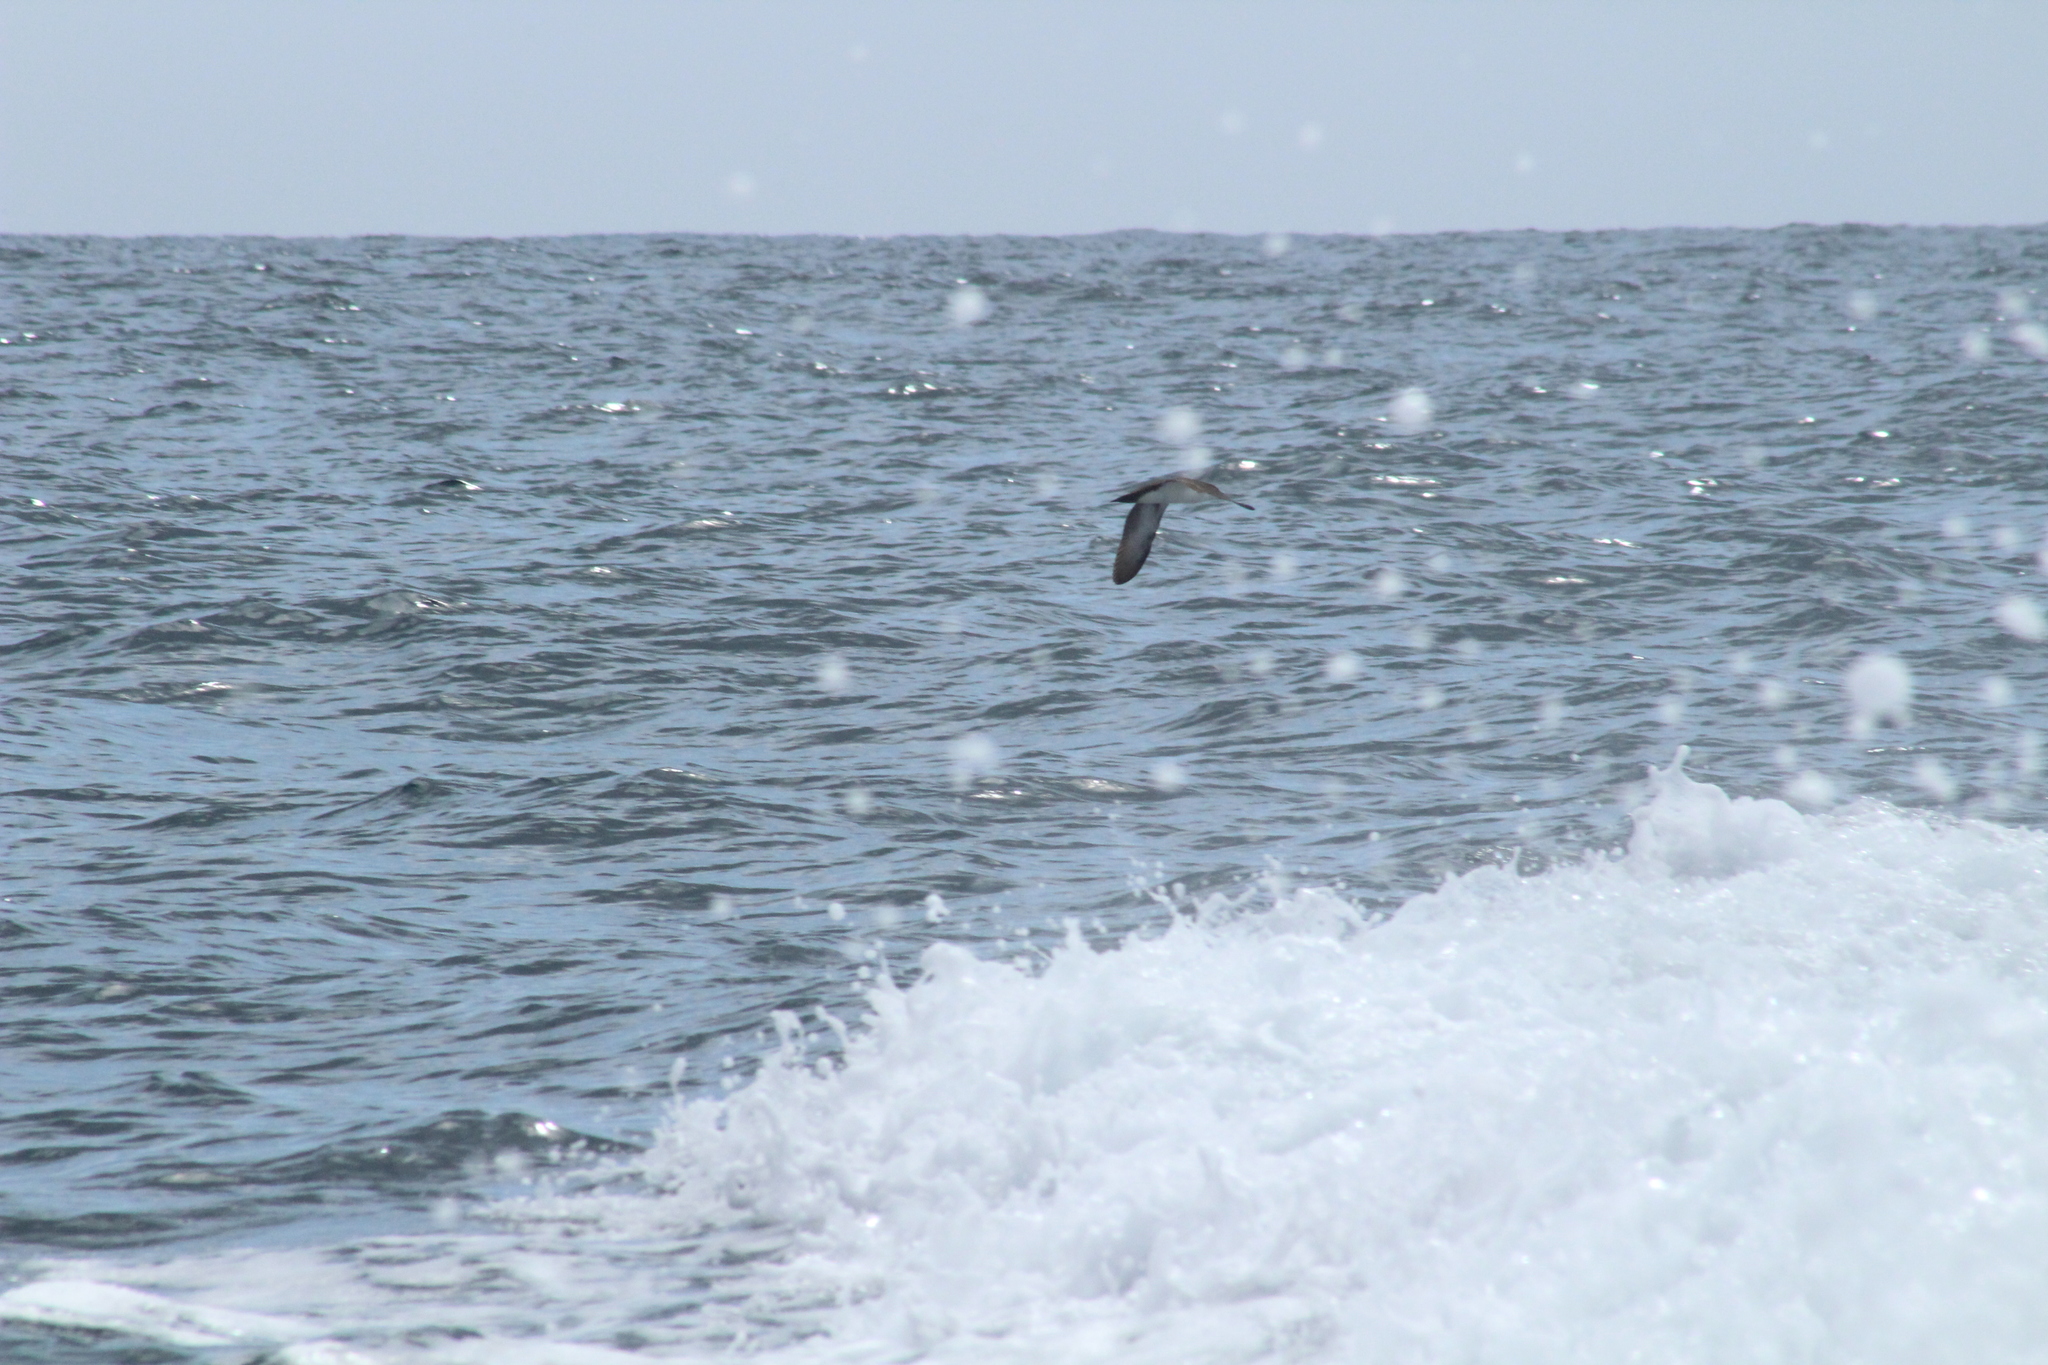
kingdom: Animalia
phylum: Chordata
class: Aves
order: Procellariiformes
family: Procellariidae
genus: Puffinus
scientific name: Puffinus subalaris
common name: Galapagos shearwater
